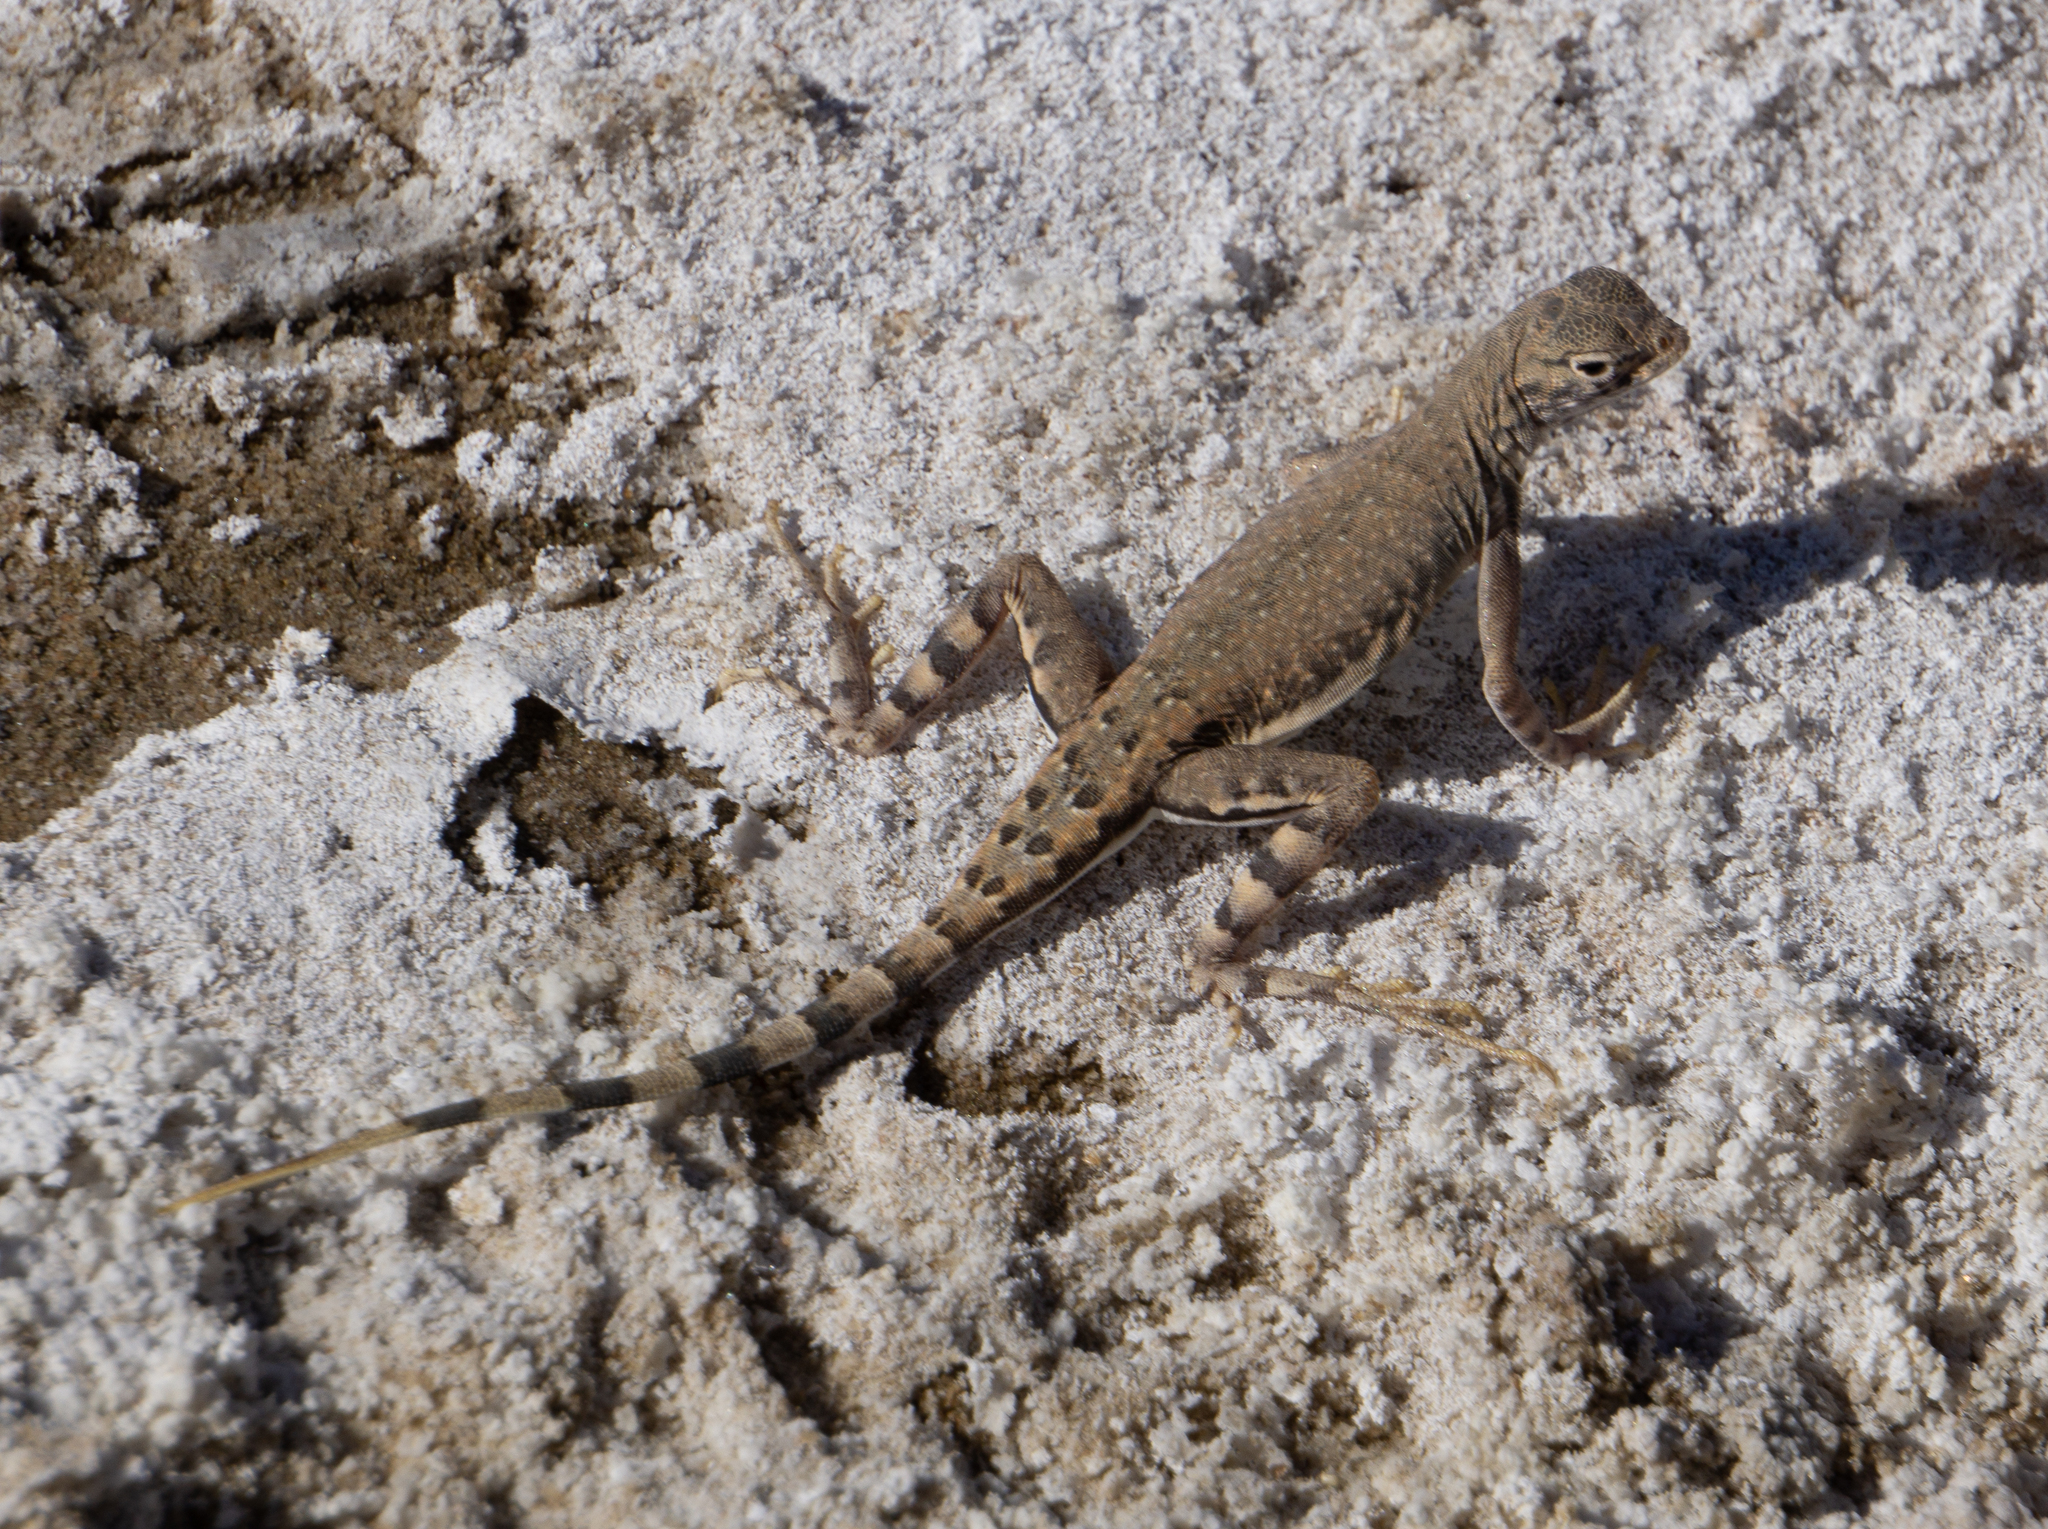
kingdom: Animalia
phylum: Chordata
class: Squamata
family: Phrynosomatidae
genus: Callisaurus
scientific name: Callisaurus draconoides
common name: Zebra-tailed lizard
